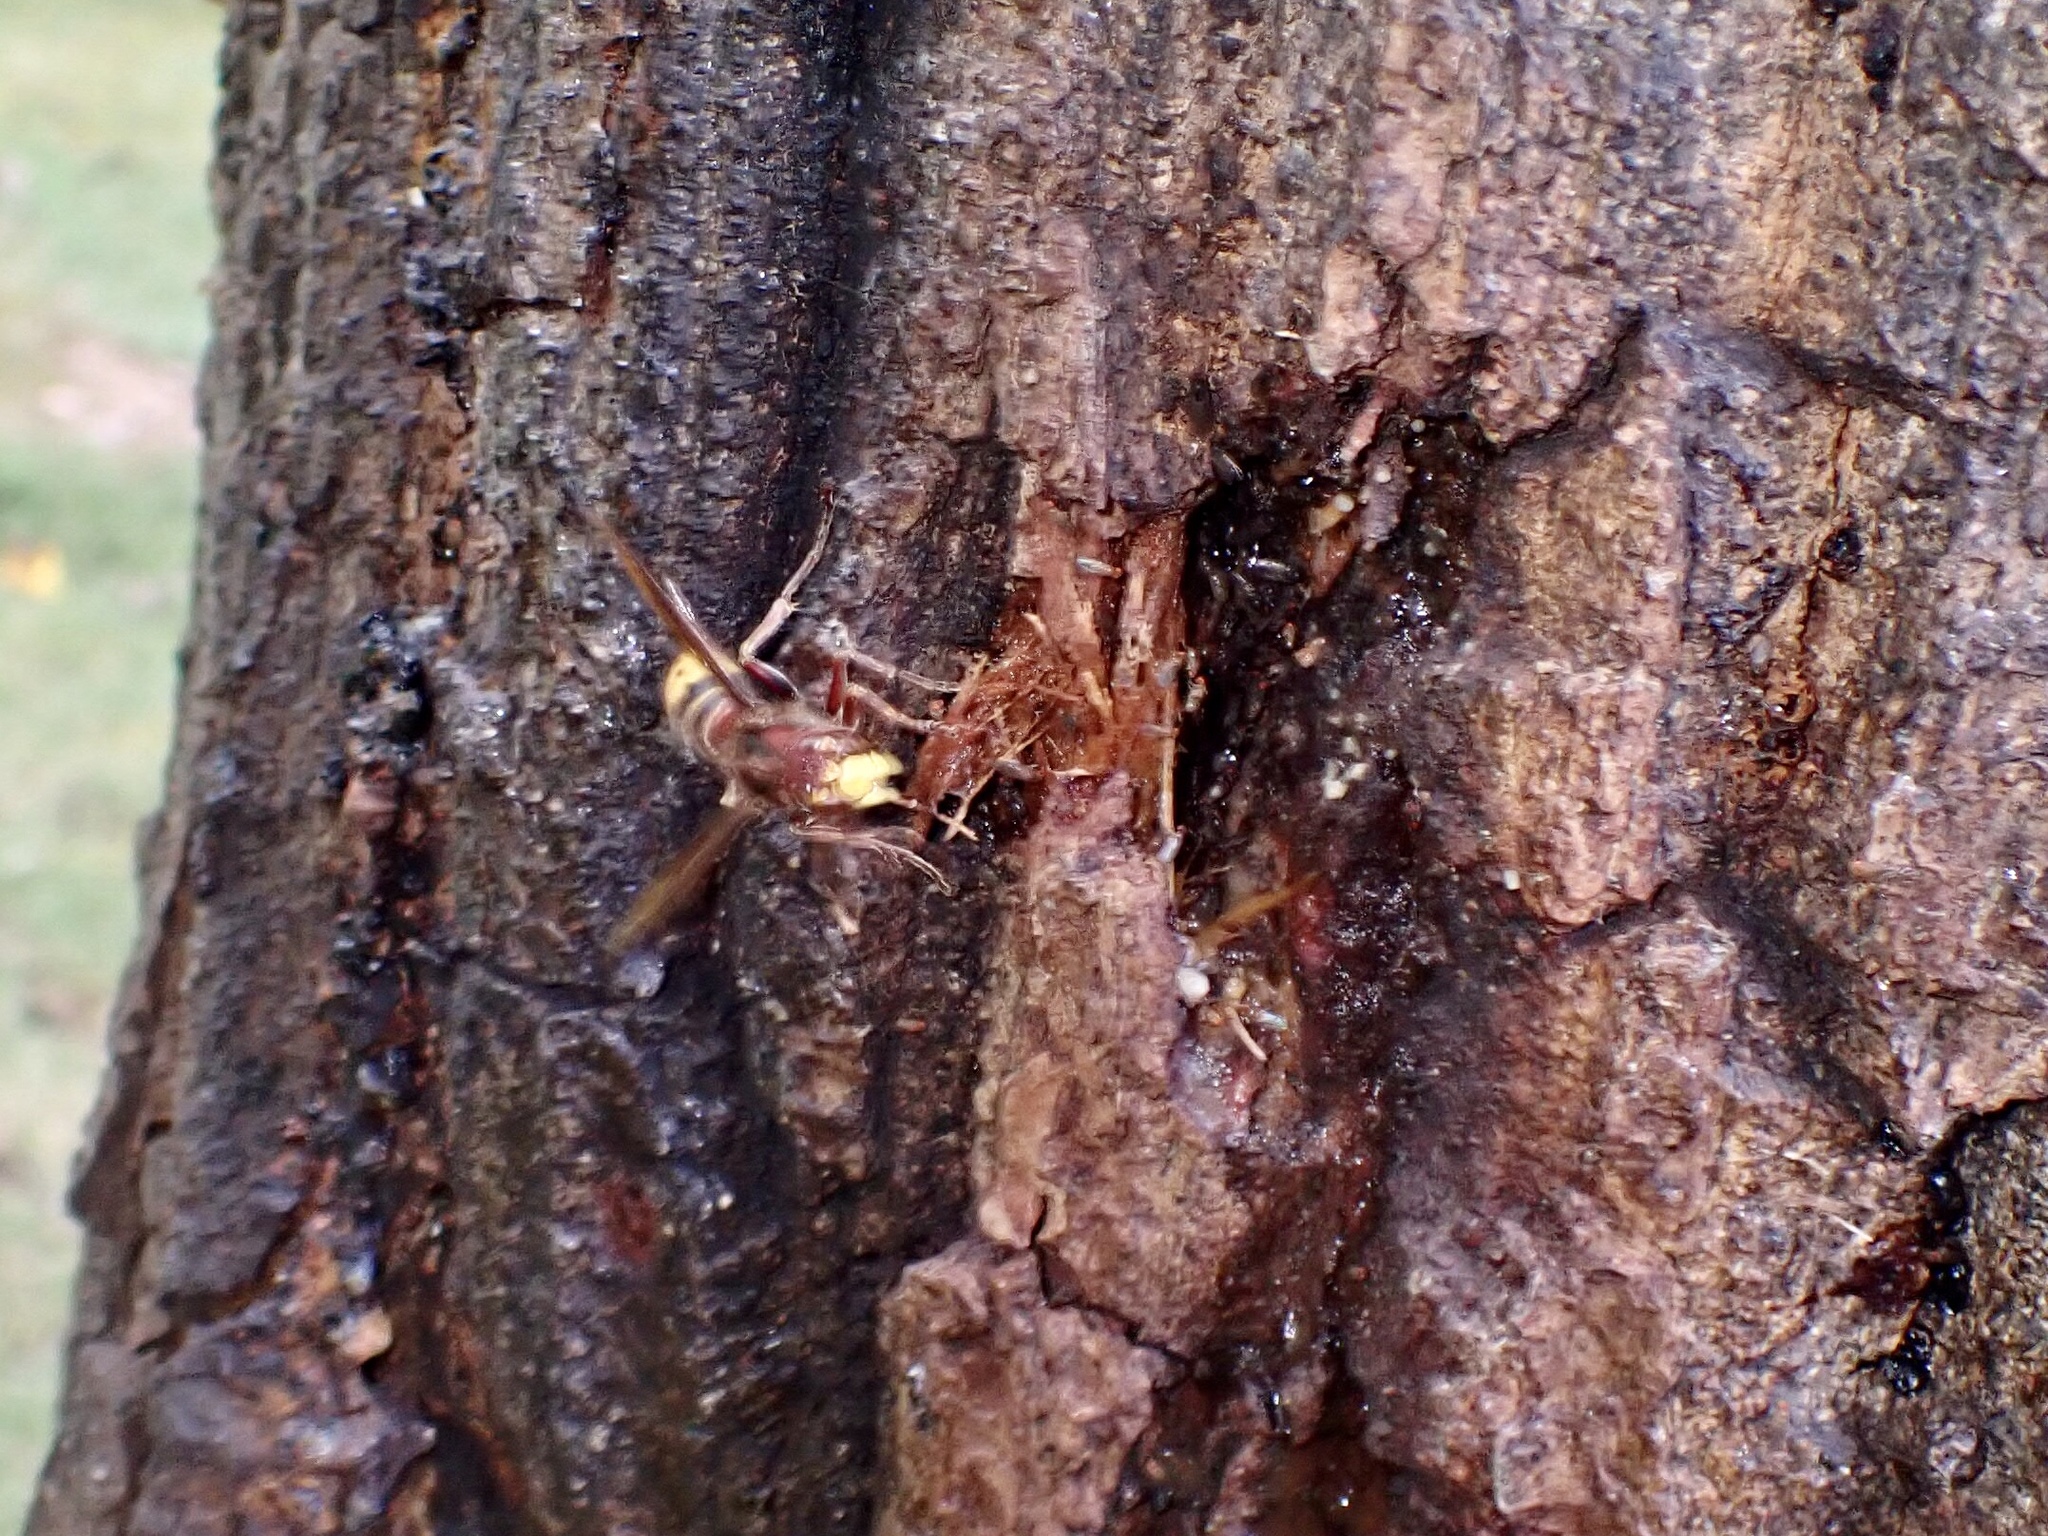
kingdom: Animalia
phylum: Arthropoda
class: Insecta
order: Hymenoptera
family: Vespidae
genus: Vespa
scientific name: Vespa crabro
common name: Hornet
